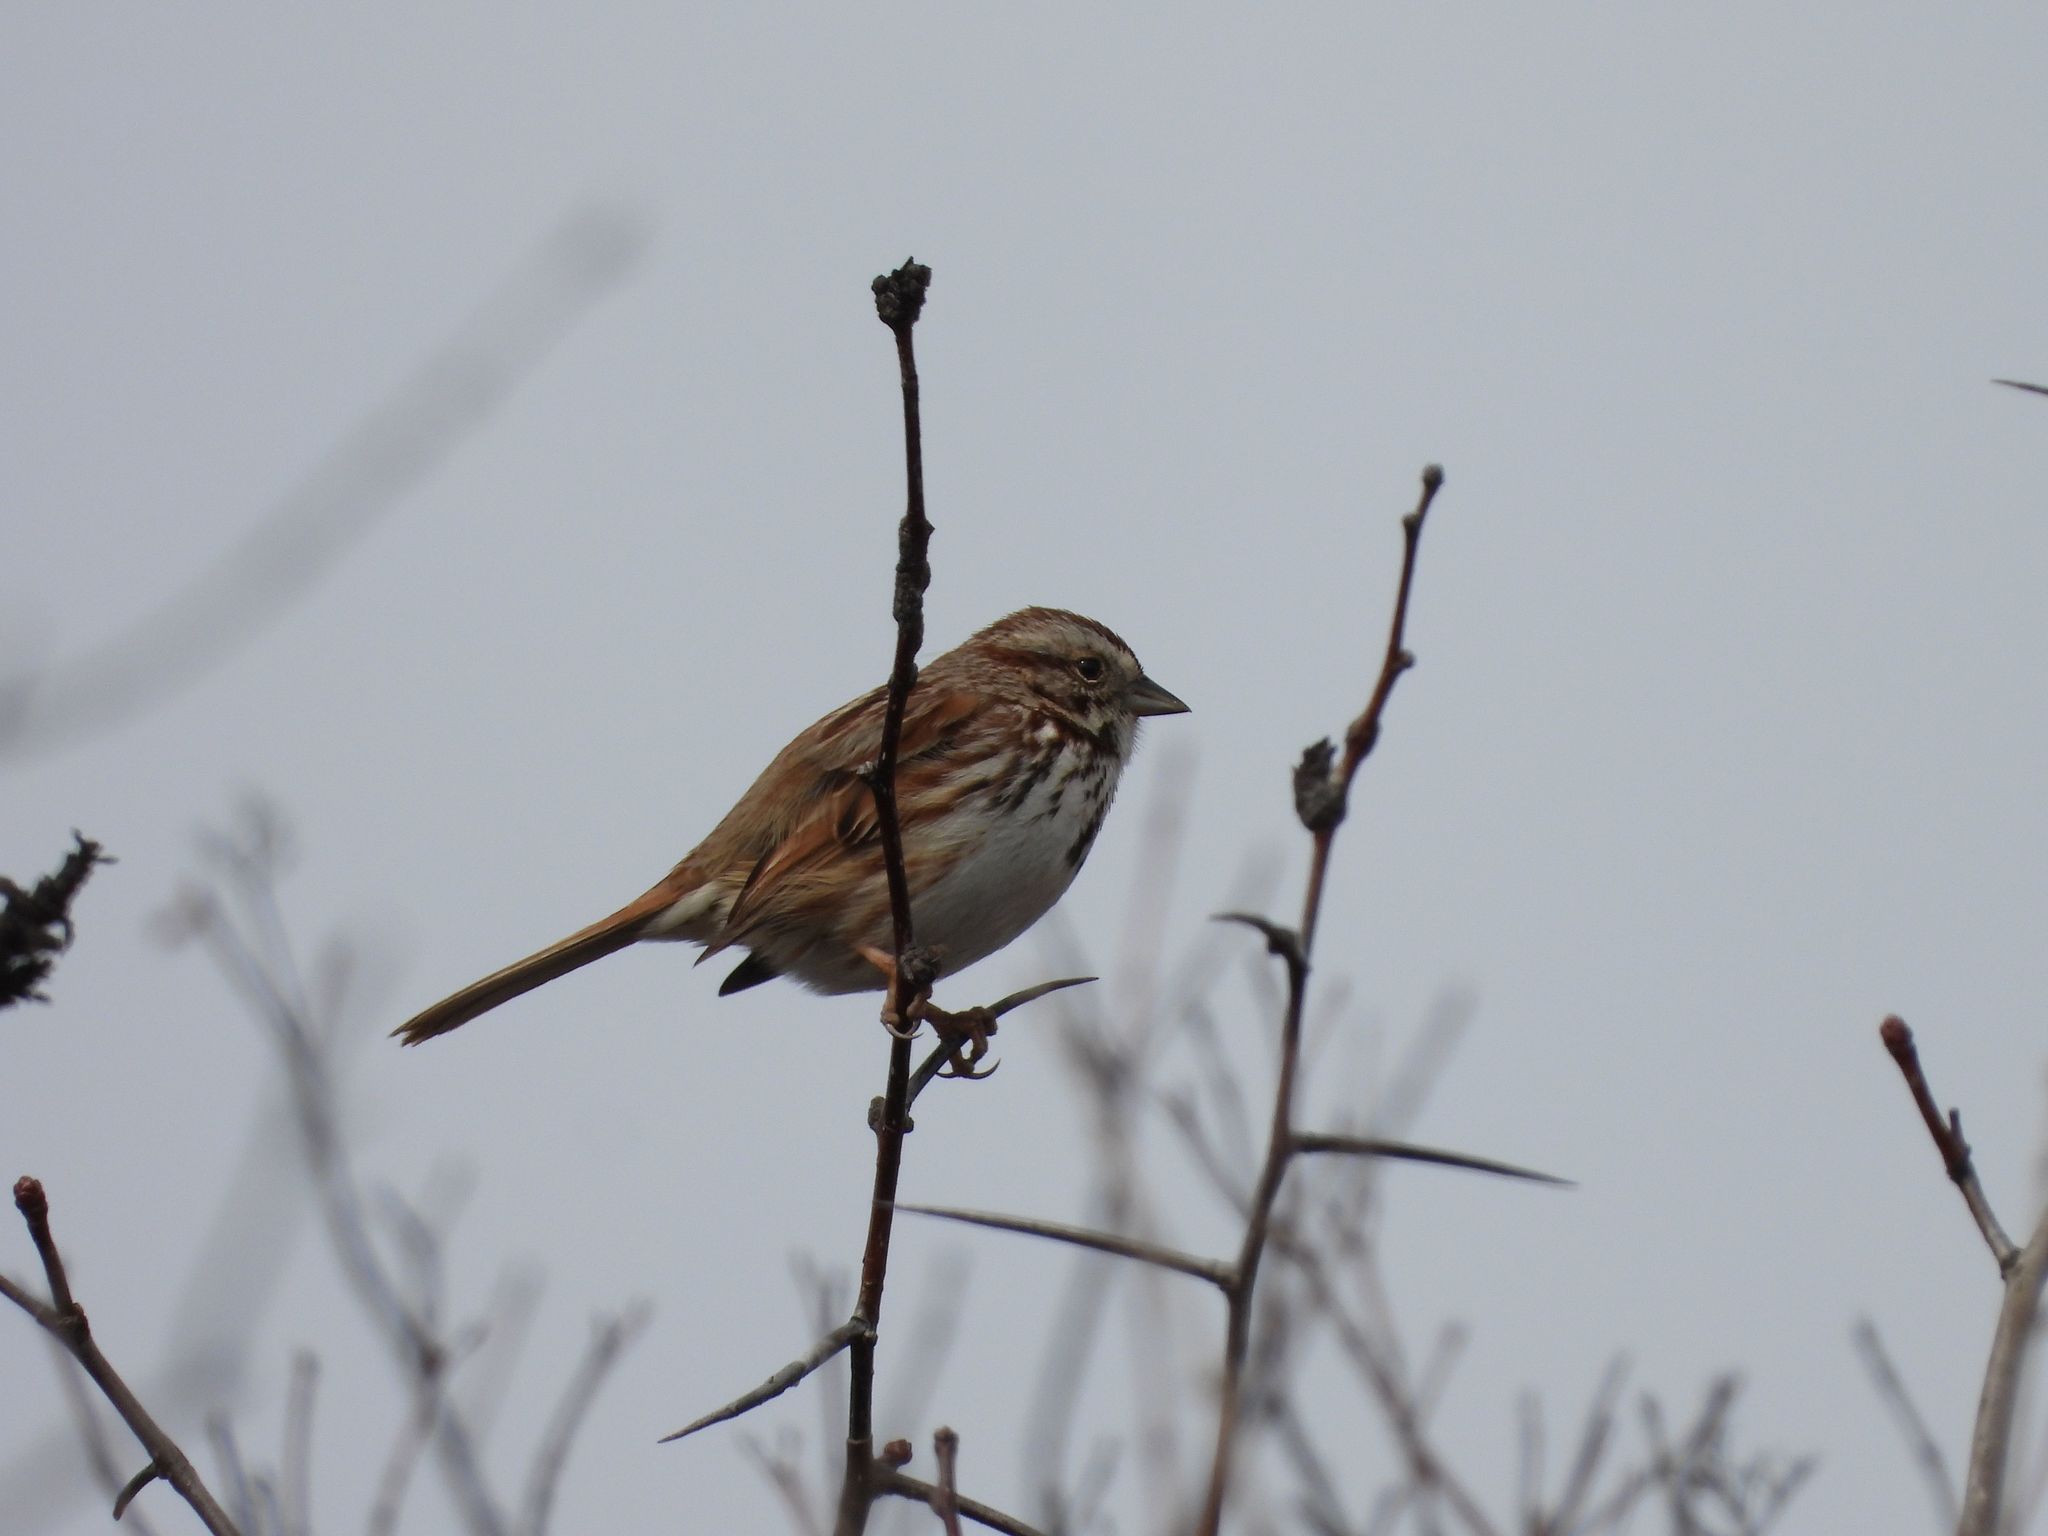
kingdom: Animalia
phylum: Chordata
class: Aves
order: Passeriformes
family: Passerellidae
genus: Melospiza
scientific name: Melospiza melodia
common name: Song sparrow
